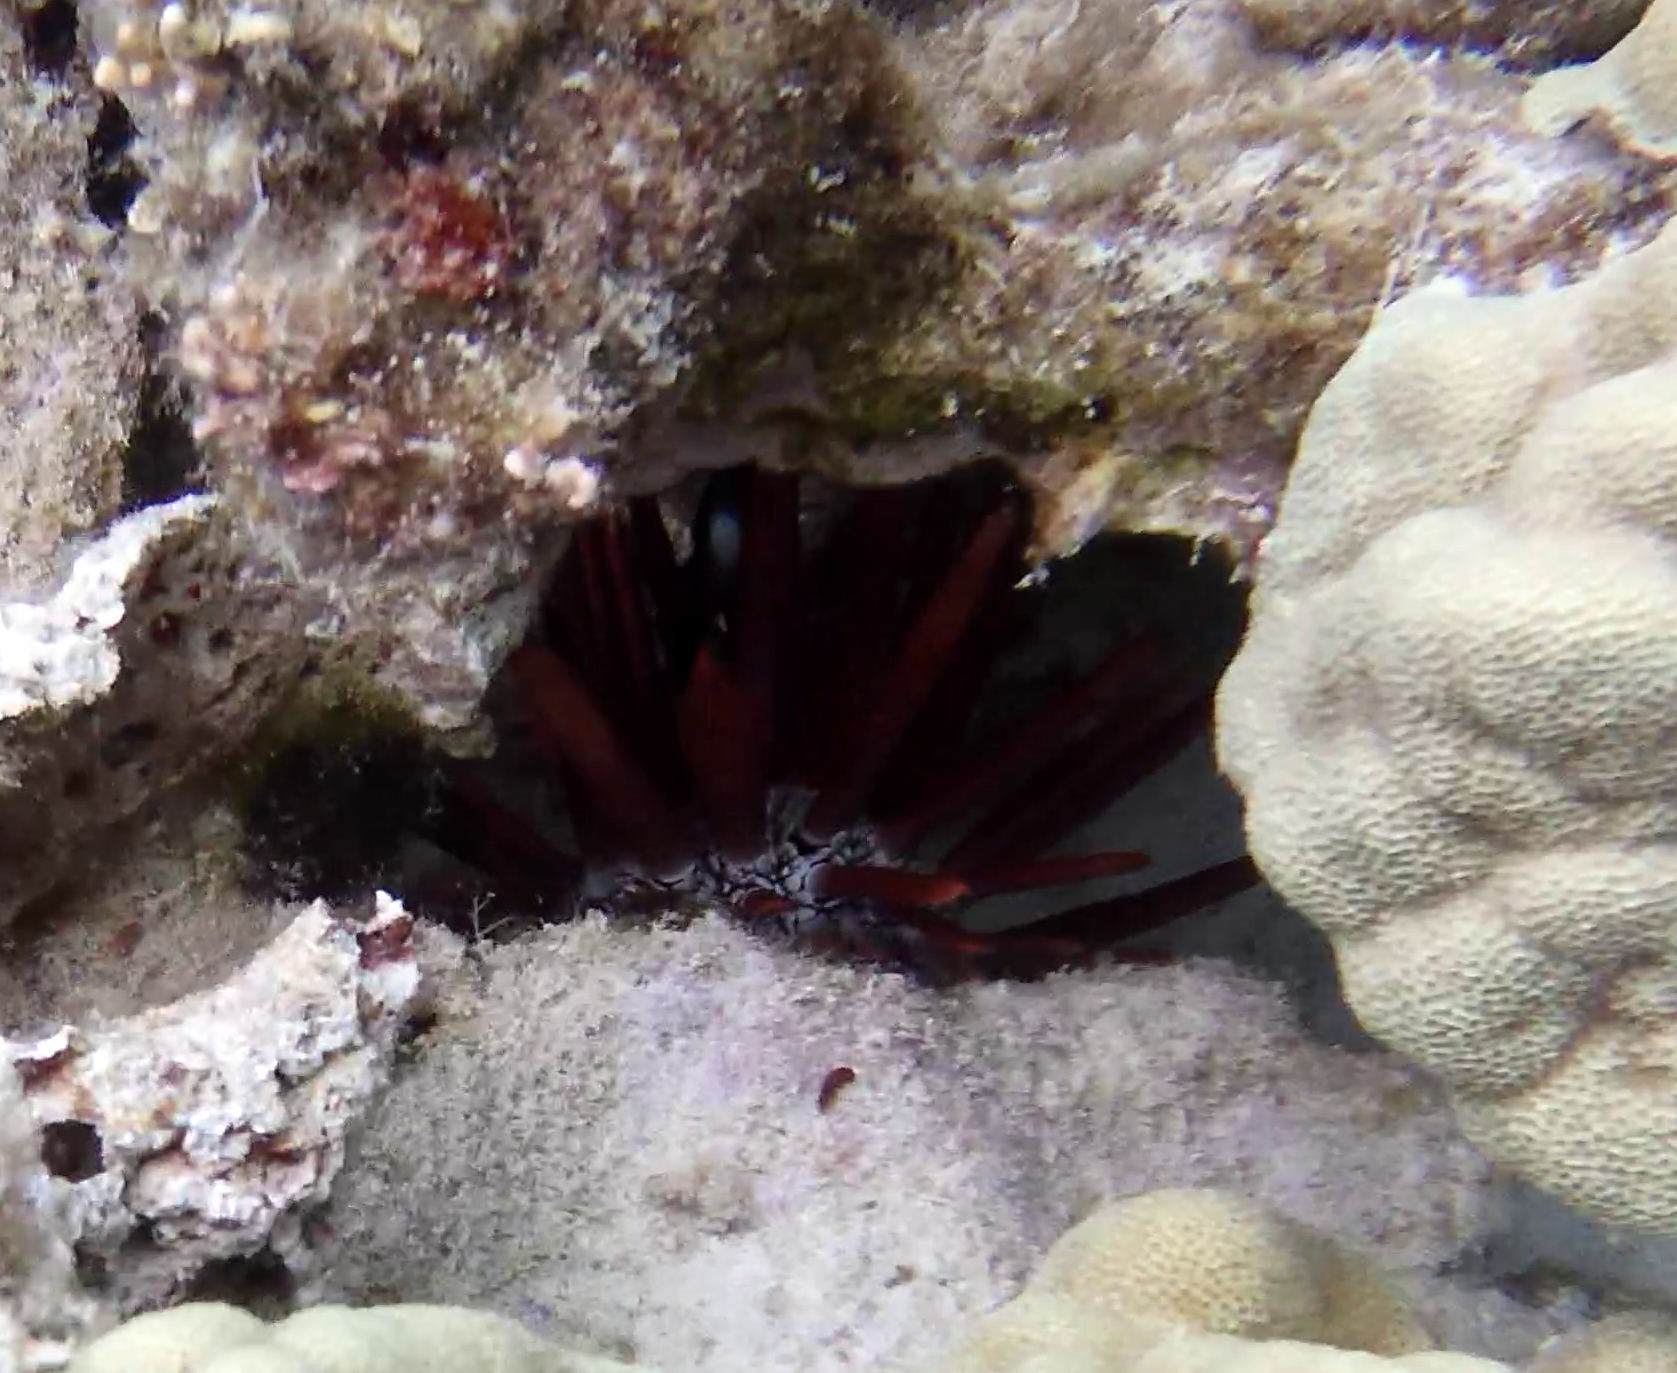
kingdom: Animalia
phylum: Echinodermata
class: Echinoidea
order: Camarodonta
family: Echinometridae
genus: Heterocentrotus
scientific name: Heterocentrotus mamillatus
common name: Slate pencil urchin
